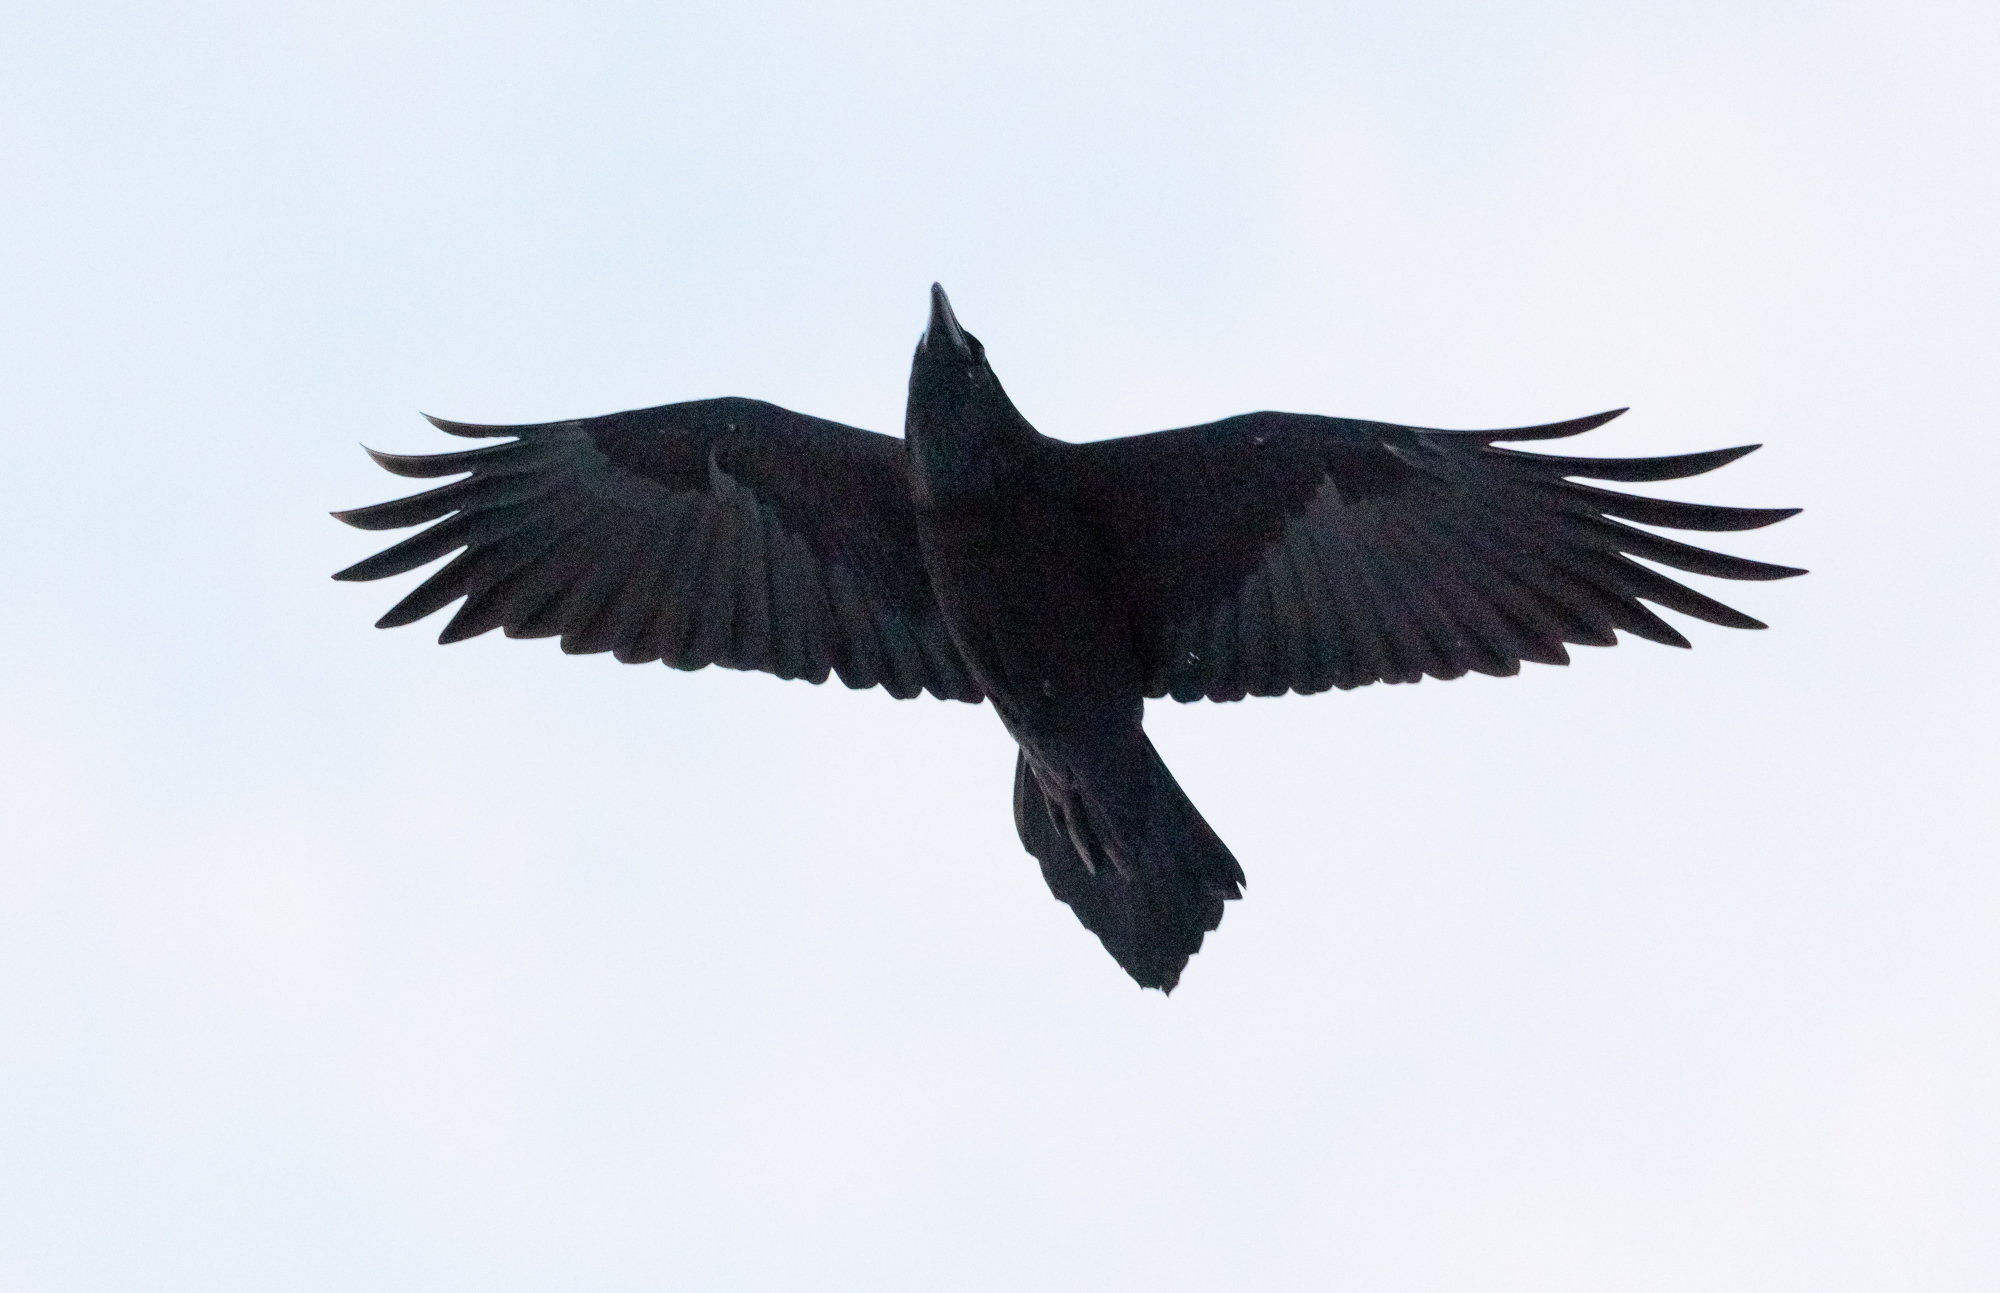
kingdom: Animalia
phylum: Chordata
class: Aves
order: Passeriformes
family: Corvidae
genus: Corvus
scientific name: Corvus corax
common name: Common raven
